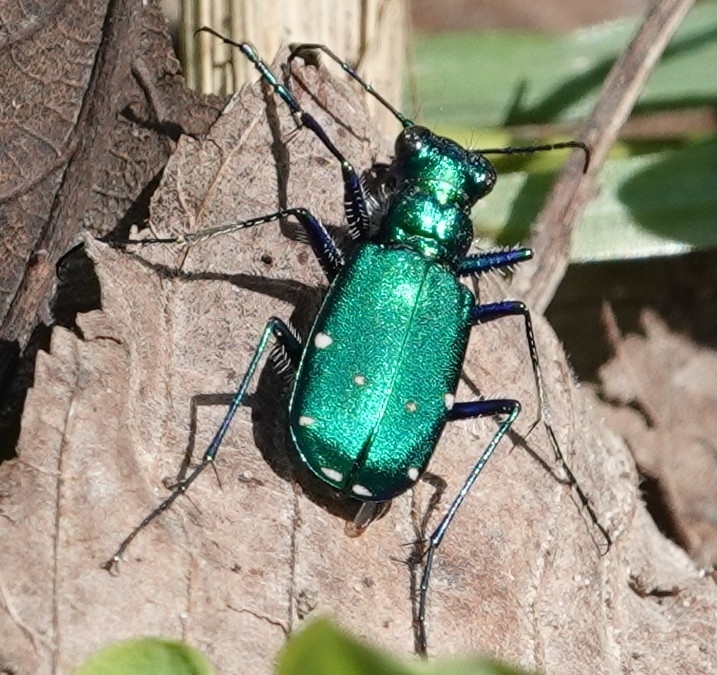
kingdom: Animalia
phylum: Arthropoda
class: Insecta
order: Coleoptera
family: Carabidae
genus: Cicindela
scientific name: Cicindela sexguttata
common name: Six-spotted tiger beetle
